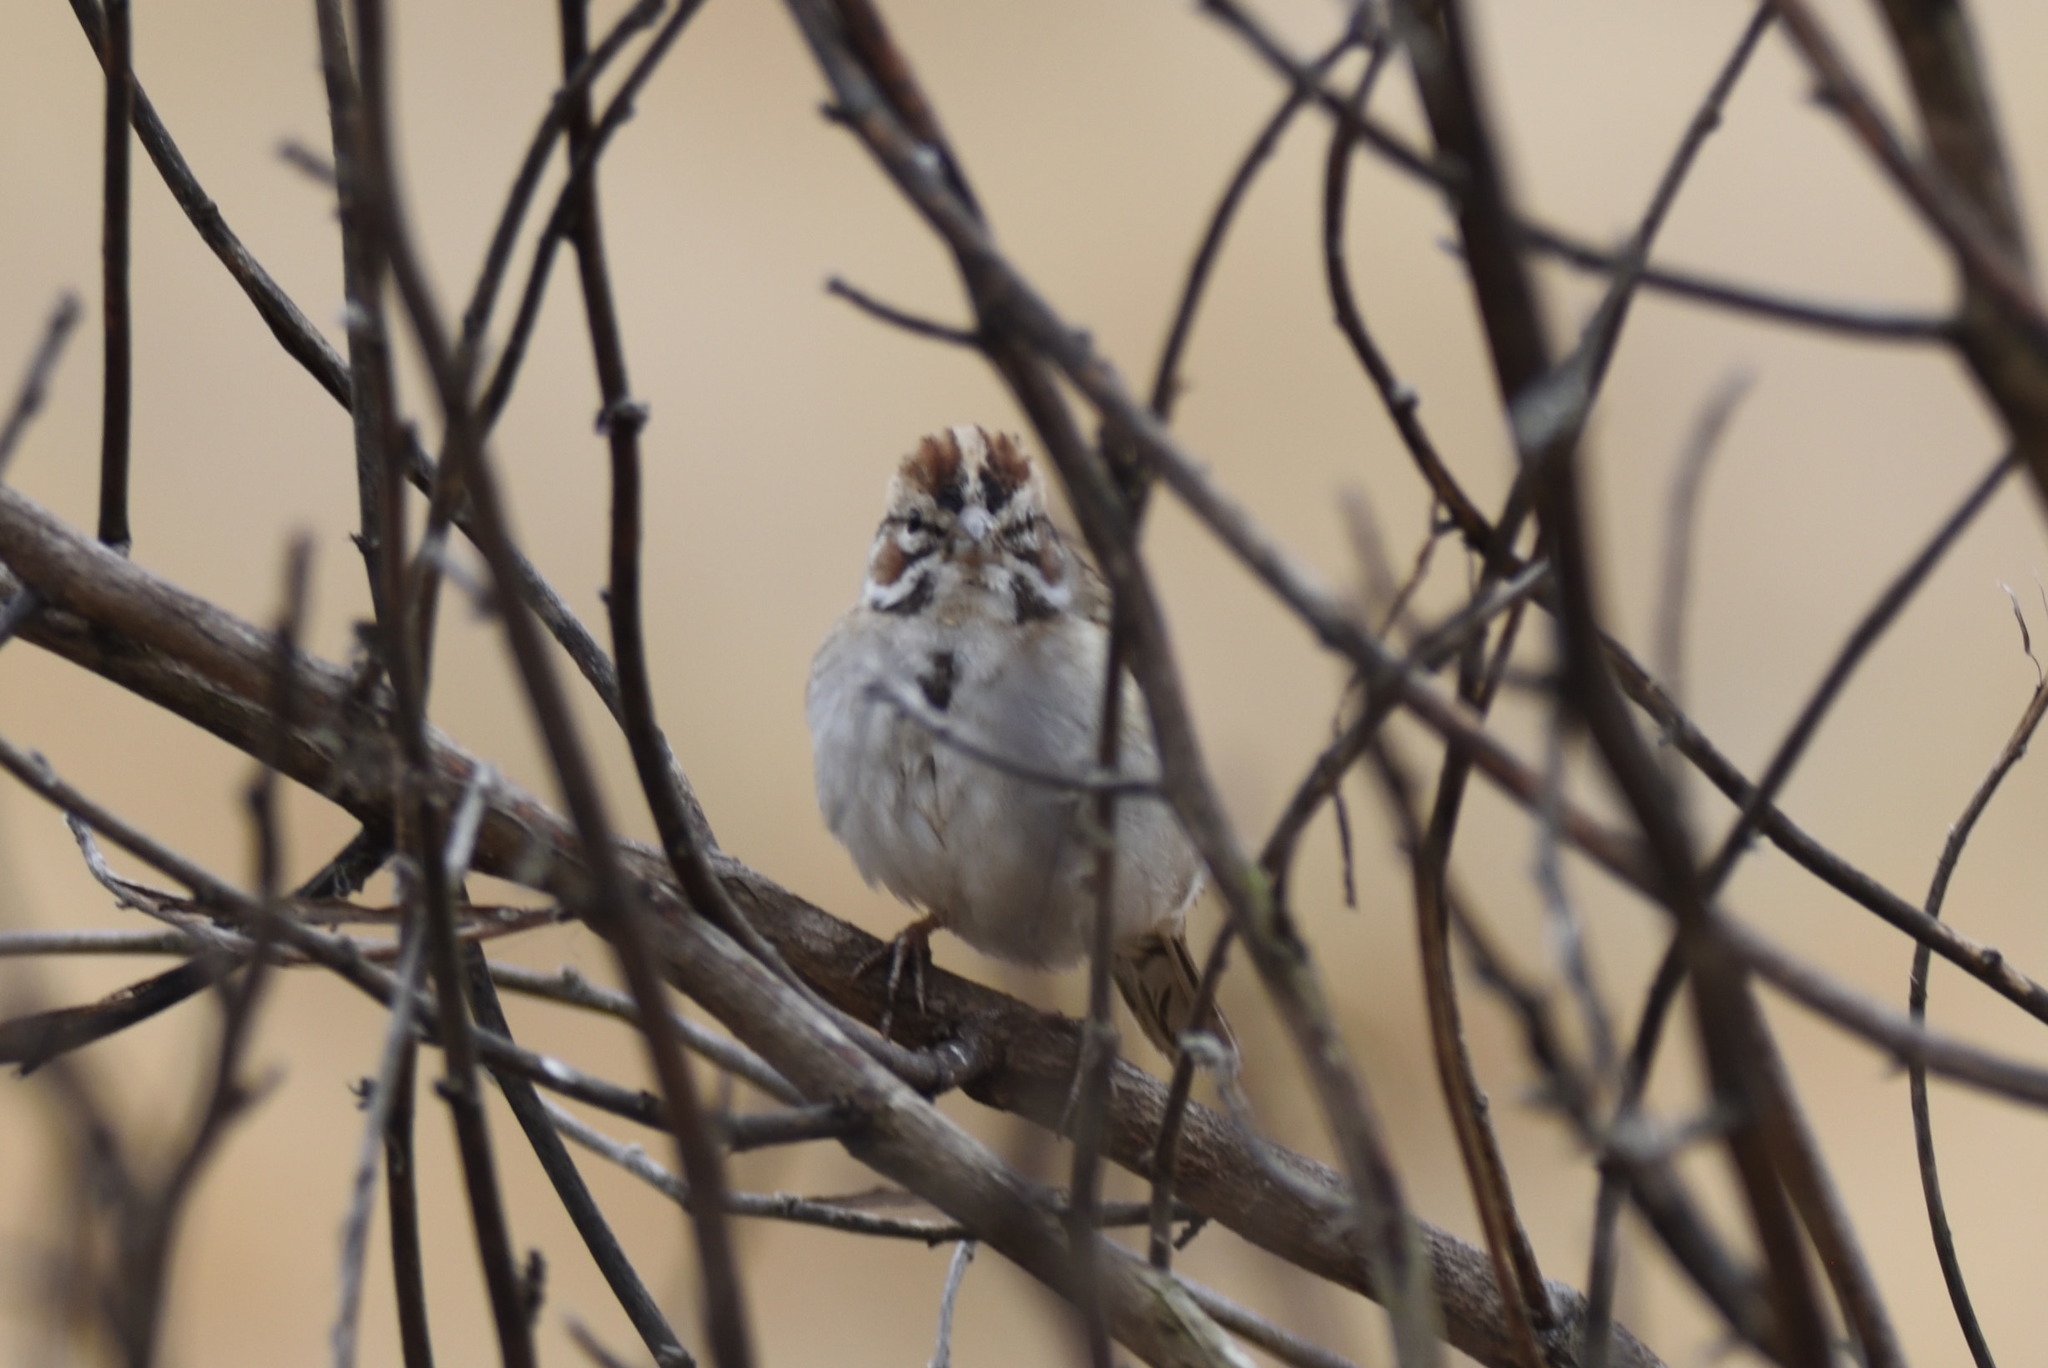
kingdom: Animalia
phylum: Chordata
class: Aves
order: Passeriformes
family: Passerellidae
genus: Chondestes
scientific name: Chondestes grammacus
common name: Lark sparrow
